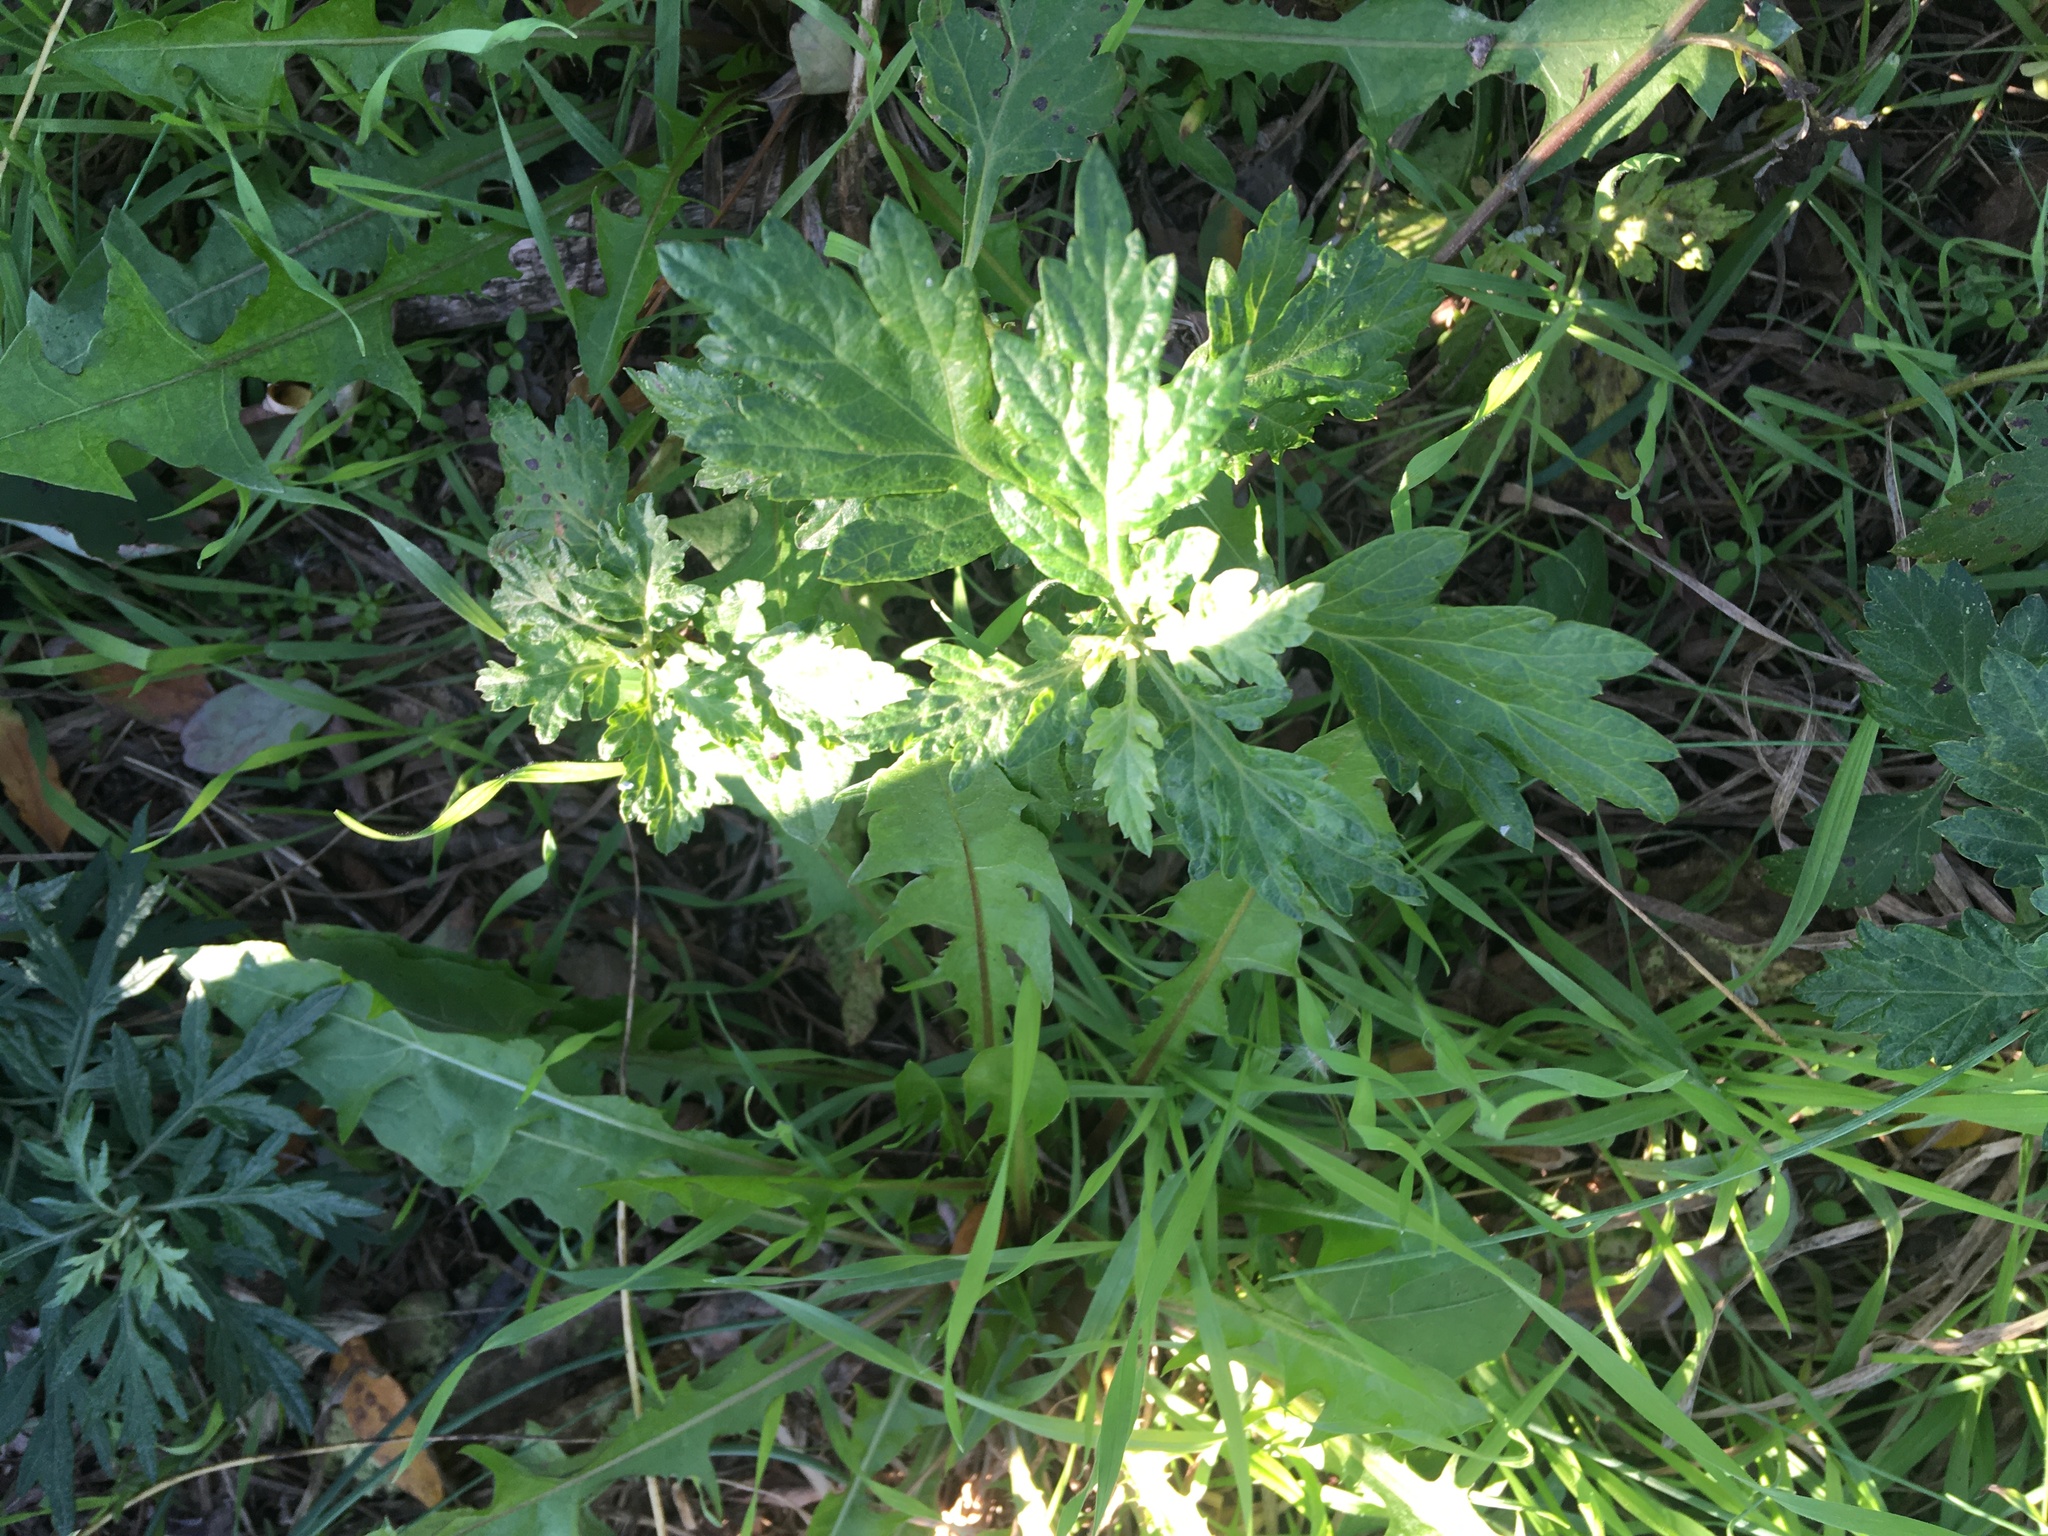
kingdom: Plantae
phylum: Tracheophyta
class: Magnoliopsida
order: Asterales
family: Asteraceae
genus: Artemisia
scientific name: Artemisia vulgaris
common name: Mugwort
